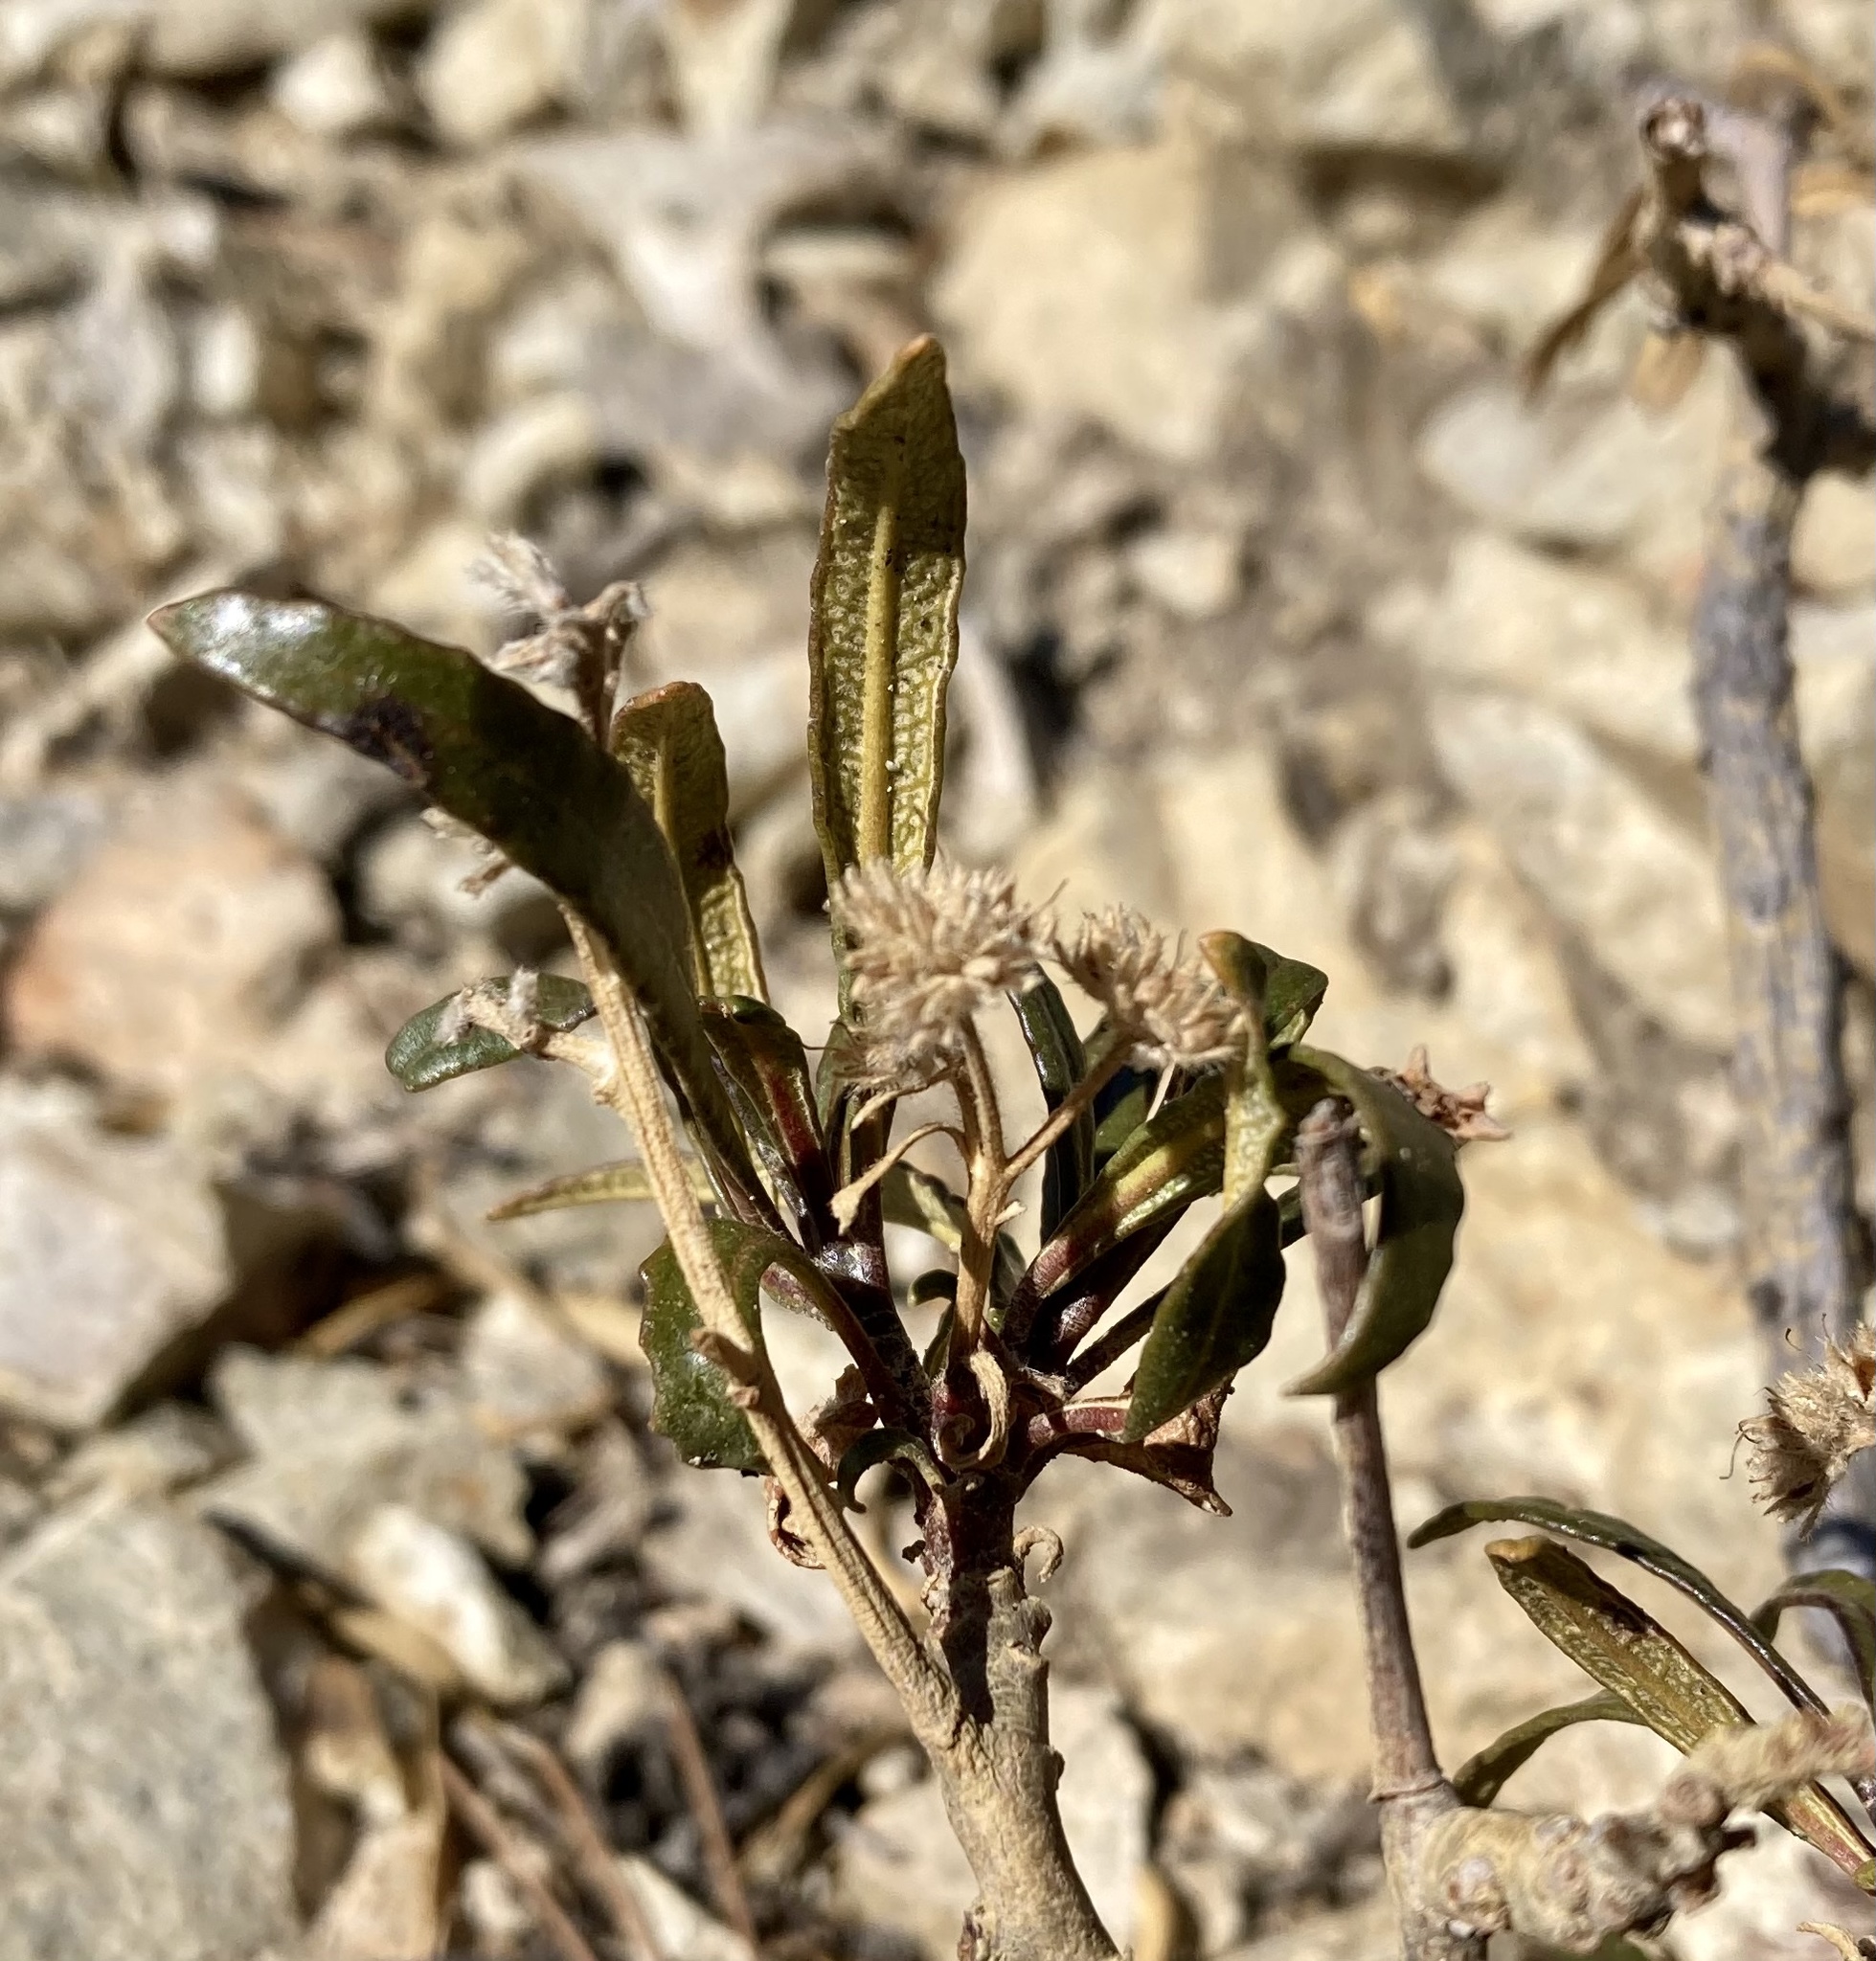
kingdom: Plantae
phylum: Tracheophyta
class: Magnoliopsida
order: Boraginales
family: Namaceae
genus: Eriodictyon
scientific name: Eriodictyon trichocalyx
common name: Hairy yerba-santa
